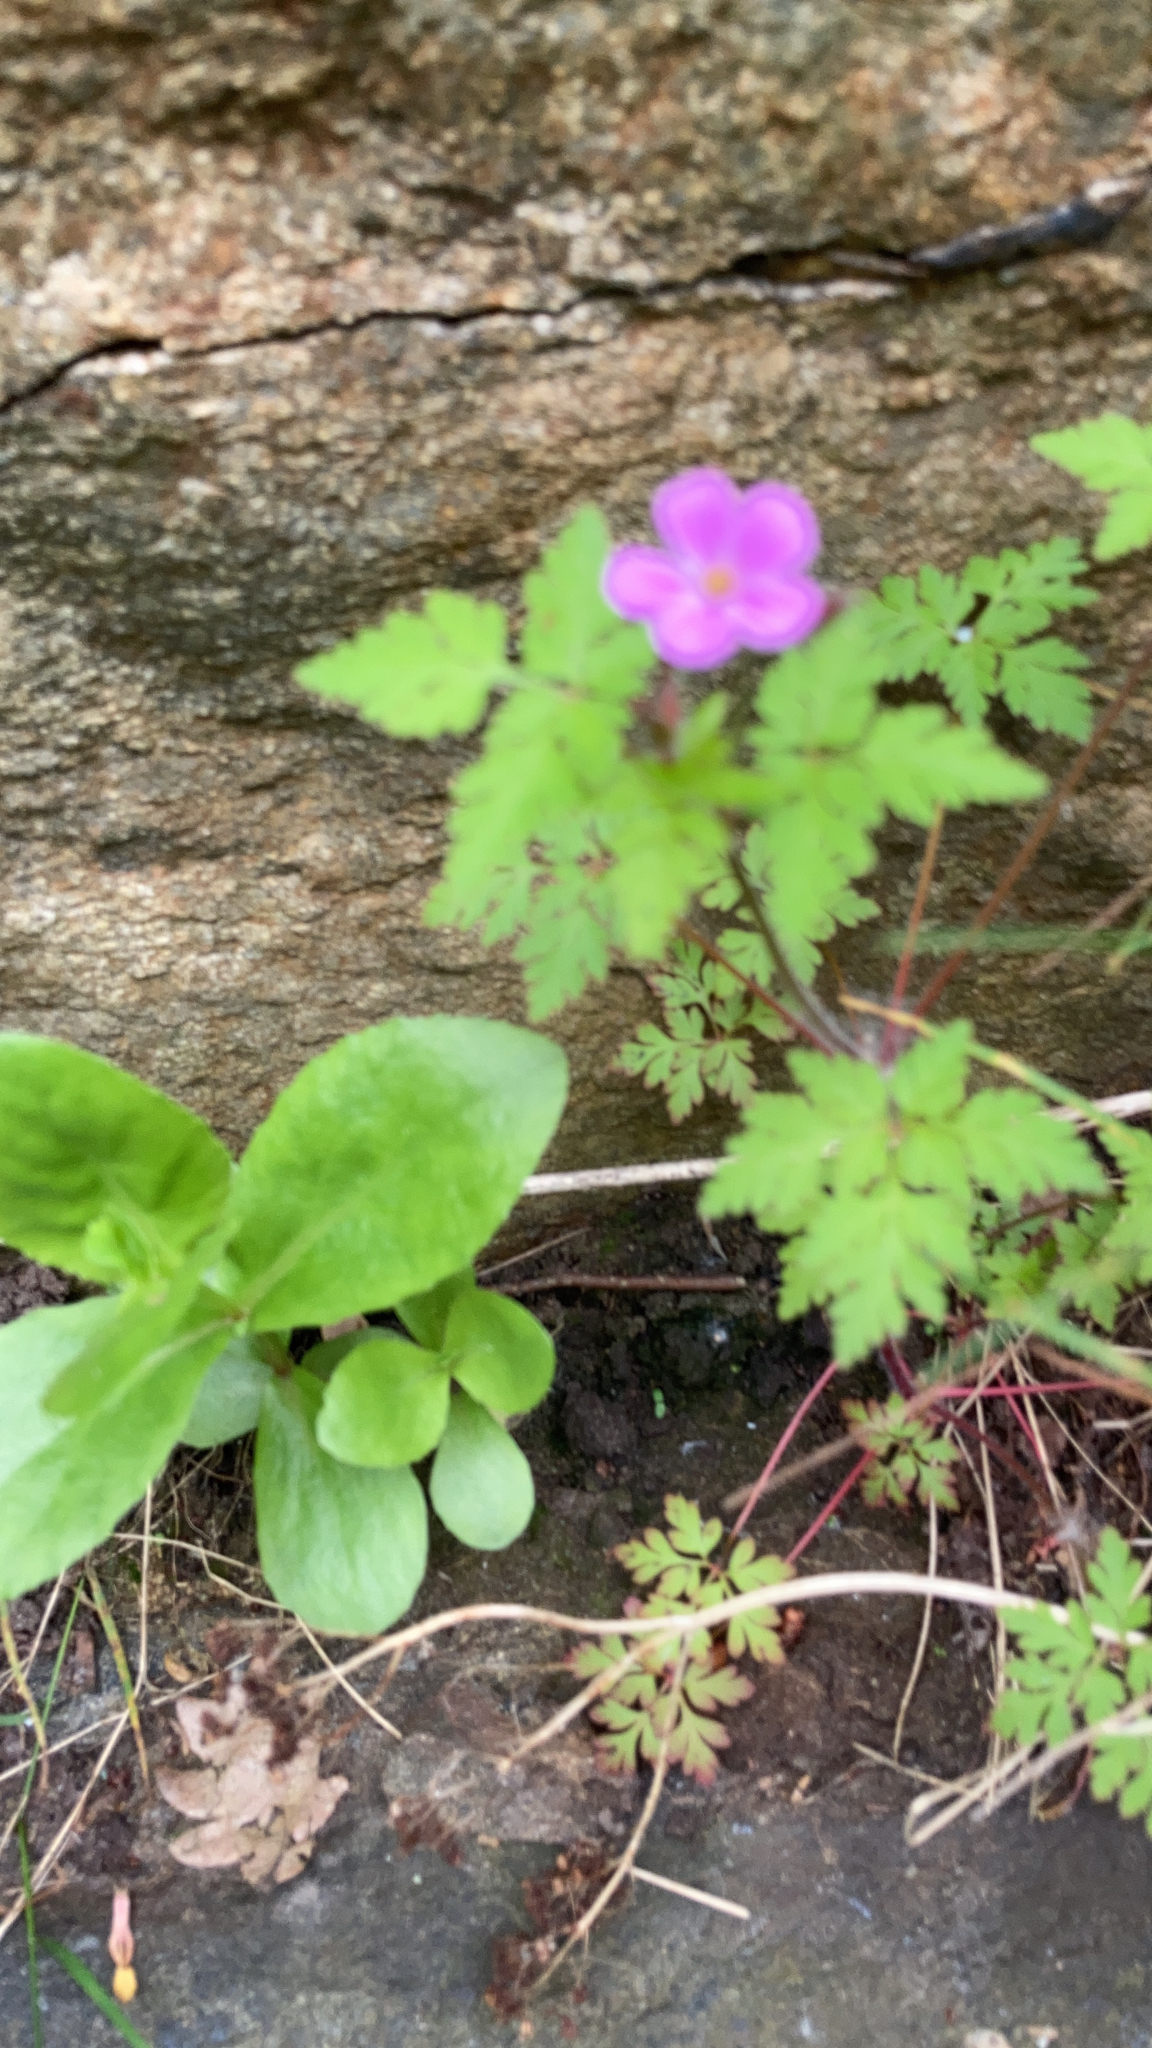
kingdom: Plantae
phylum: Tracheophyta
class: Magnoliopsida
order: Geraniales
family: Geraniaceae
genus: Geranium
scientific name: Geranium robertianum
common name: Herb-robert
